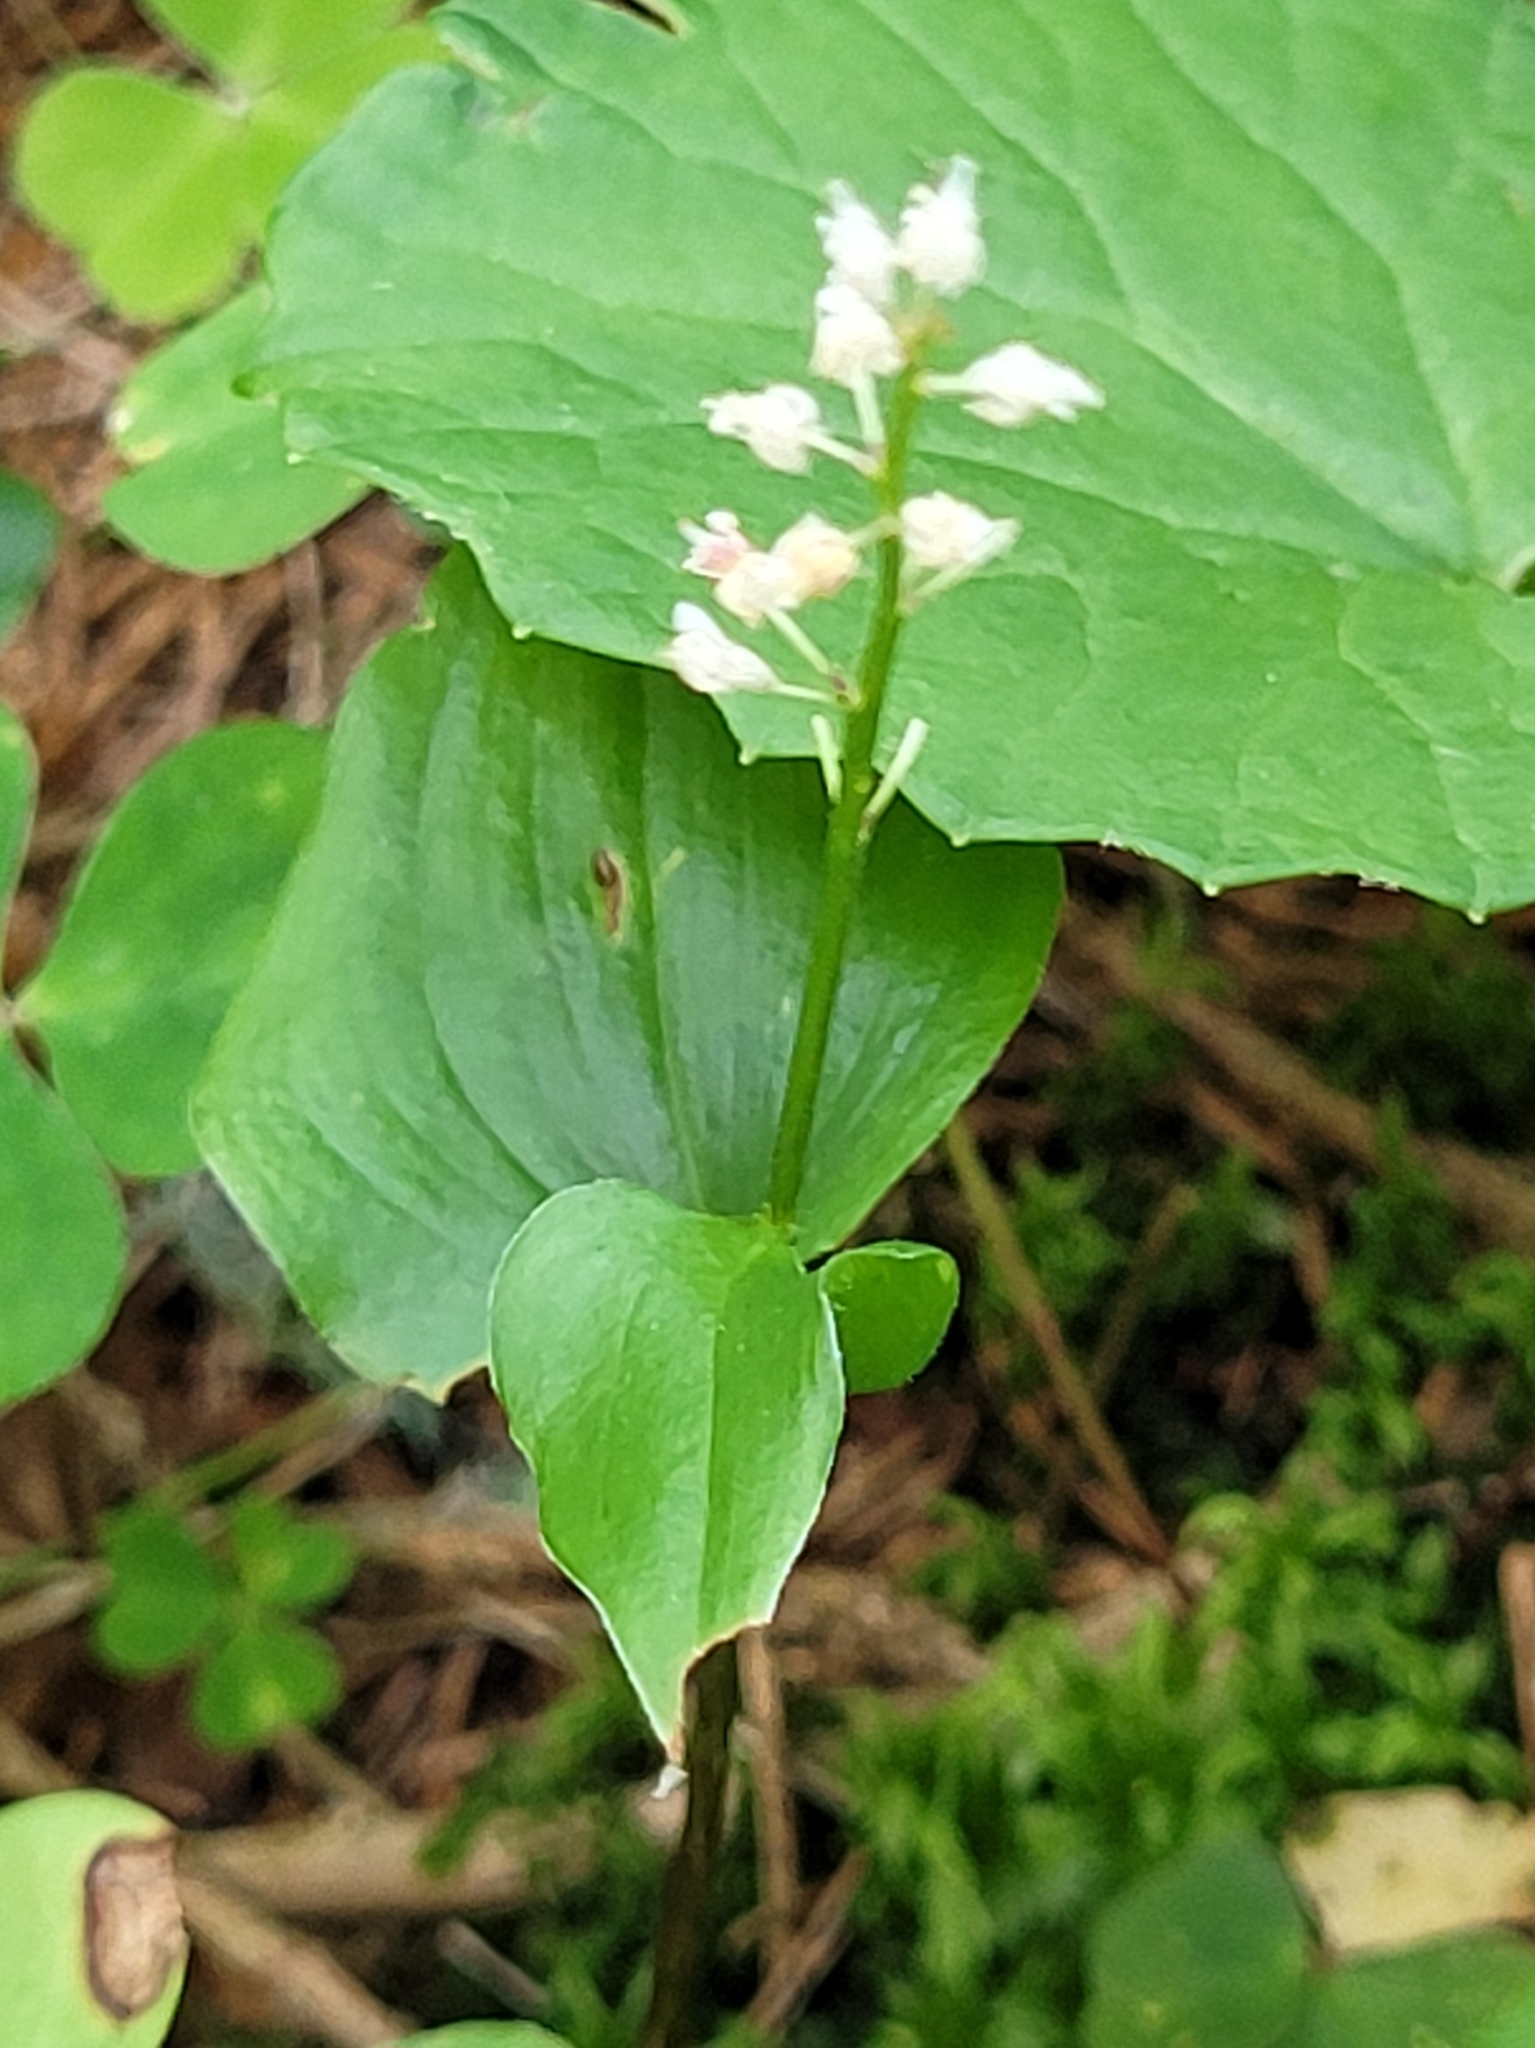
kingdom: Plantae
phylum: Tracheophyta
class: Liliopsida
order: Asparagales
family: Asparagaceae
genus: Maianthemum
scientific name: Maianthemum bifolium
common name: May lily
